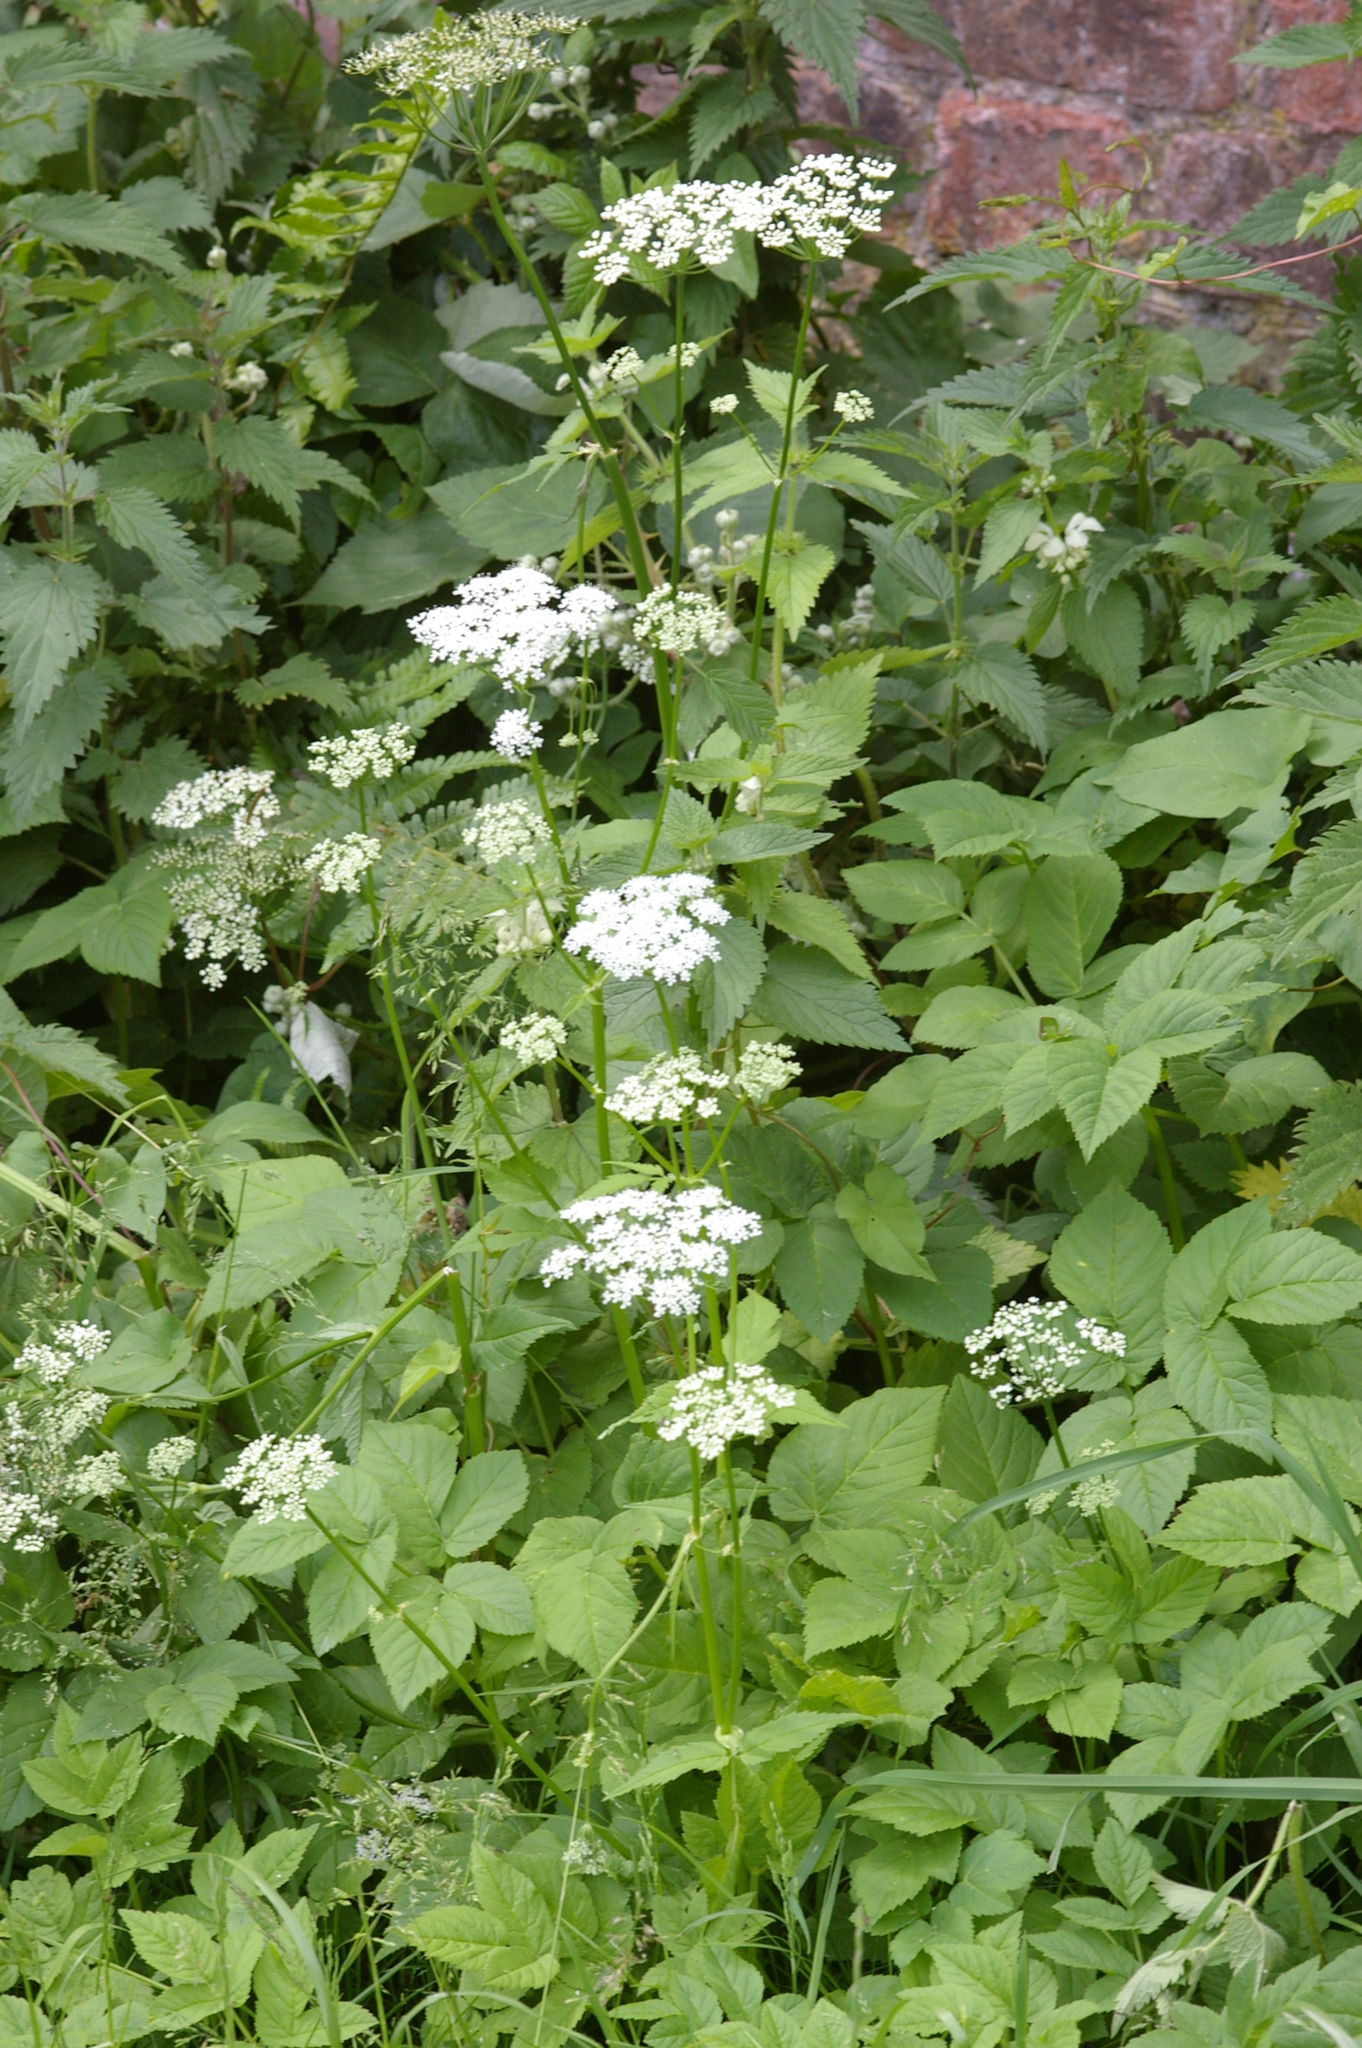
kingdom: Plantae
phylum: Tracheophyta
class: Magnoliopsida
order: Apiales
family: Apiaceae
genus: Aegopodium
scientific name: Aegopodium podagraria
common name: Ground-elder
